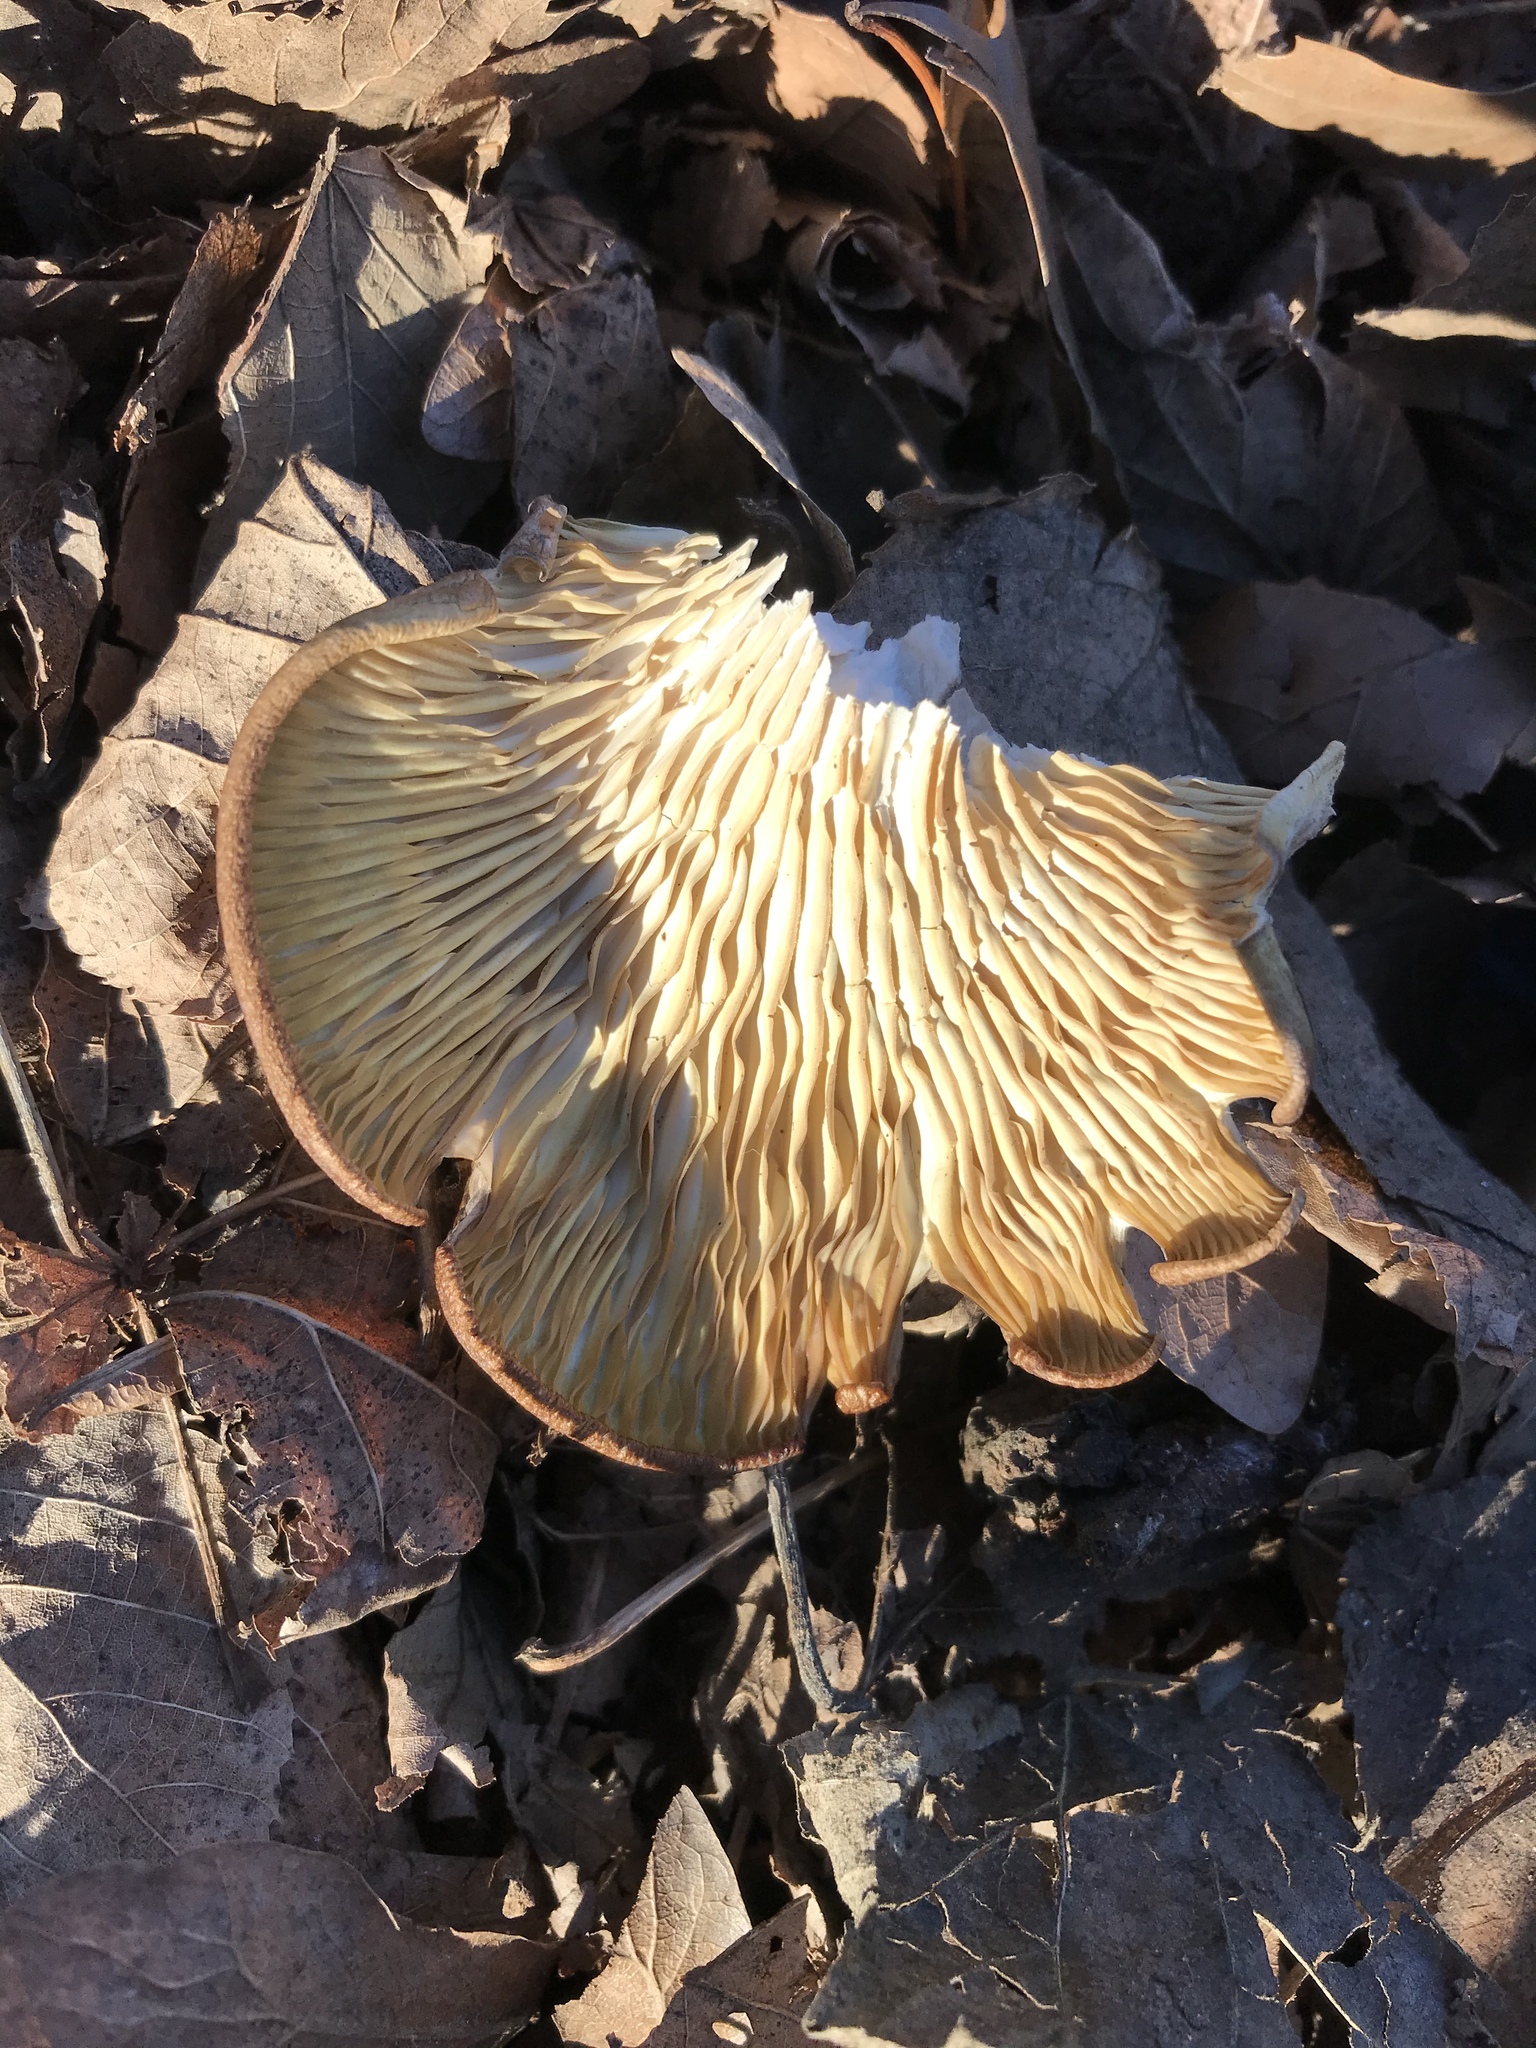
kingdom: Fungi
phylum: Basidiomycota
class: Agaricomycetes
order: Agaricales
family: Pleurotaceae
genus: Pleurotus
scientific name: Pleurotus ostreatus
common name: Oyster mushroom
